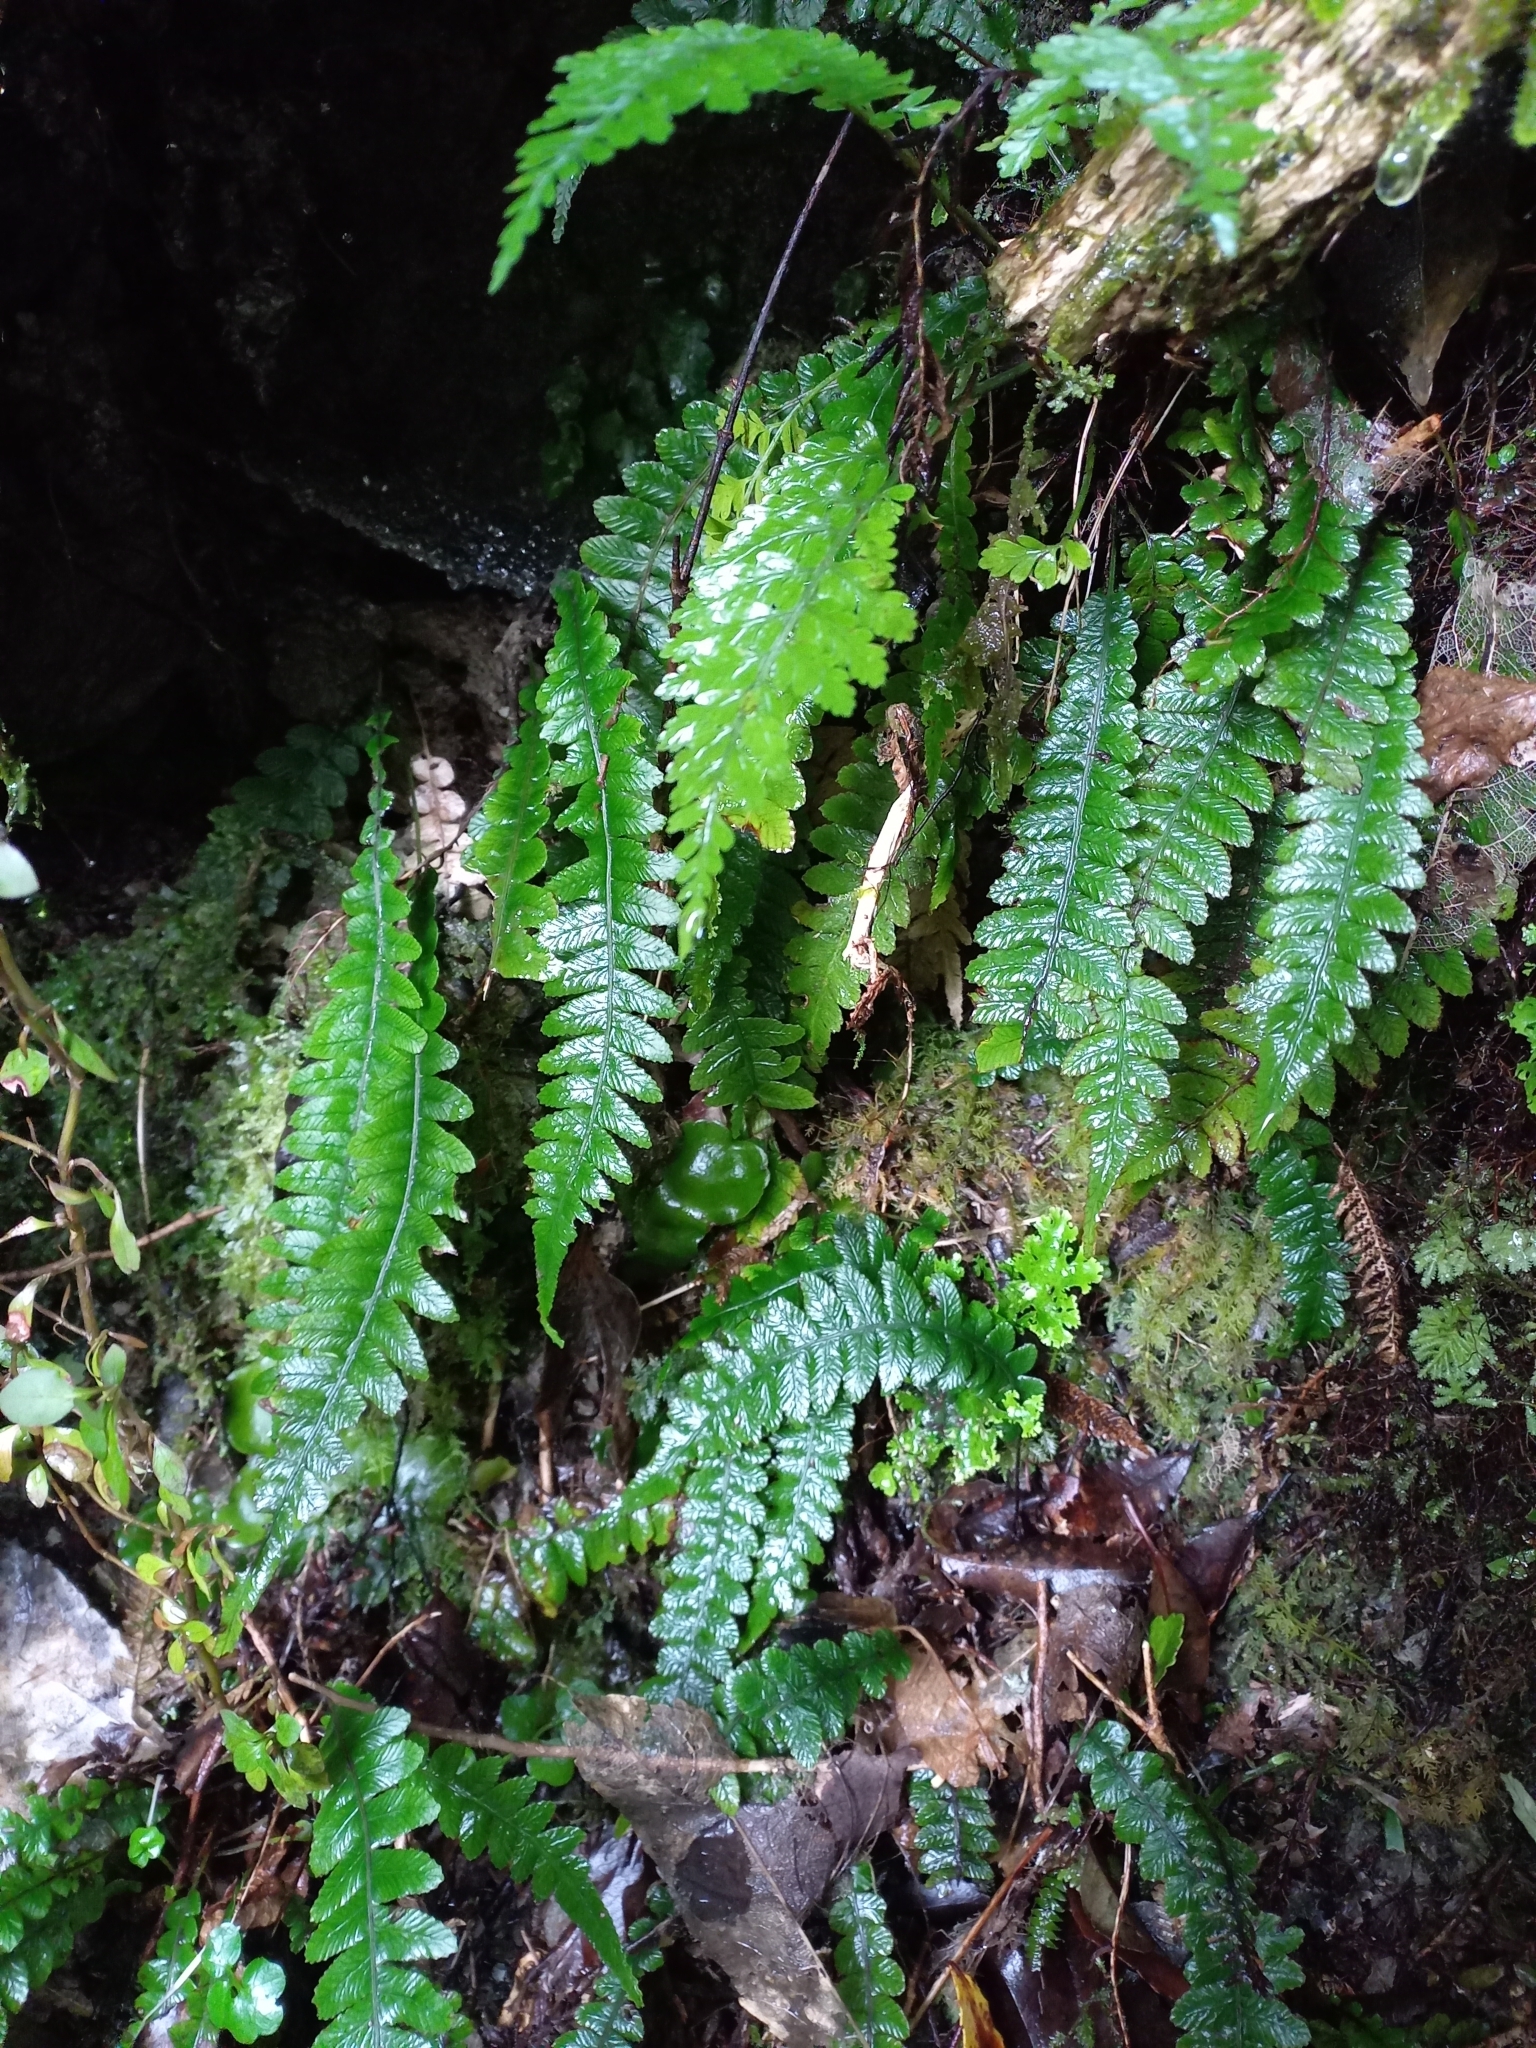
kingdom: Plantae
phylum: Tracheophyta
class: Polypodiopsida
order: Polypodiales
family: Blechnaceae
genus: Austroblechnum
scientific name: Austroblechnum lanceolatum
